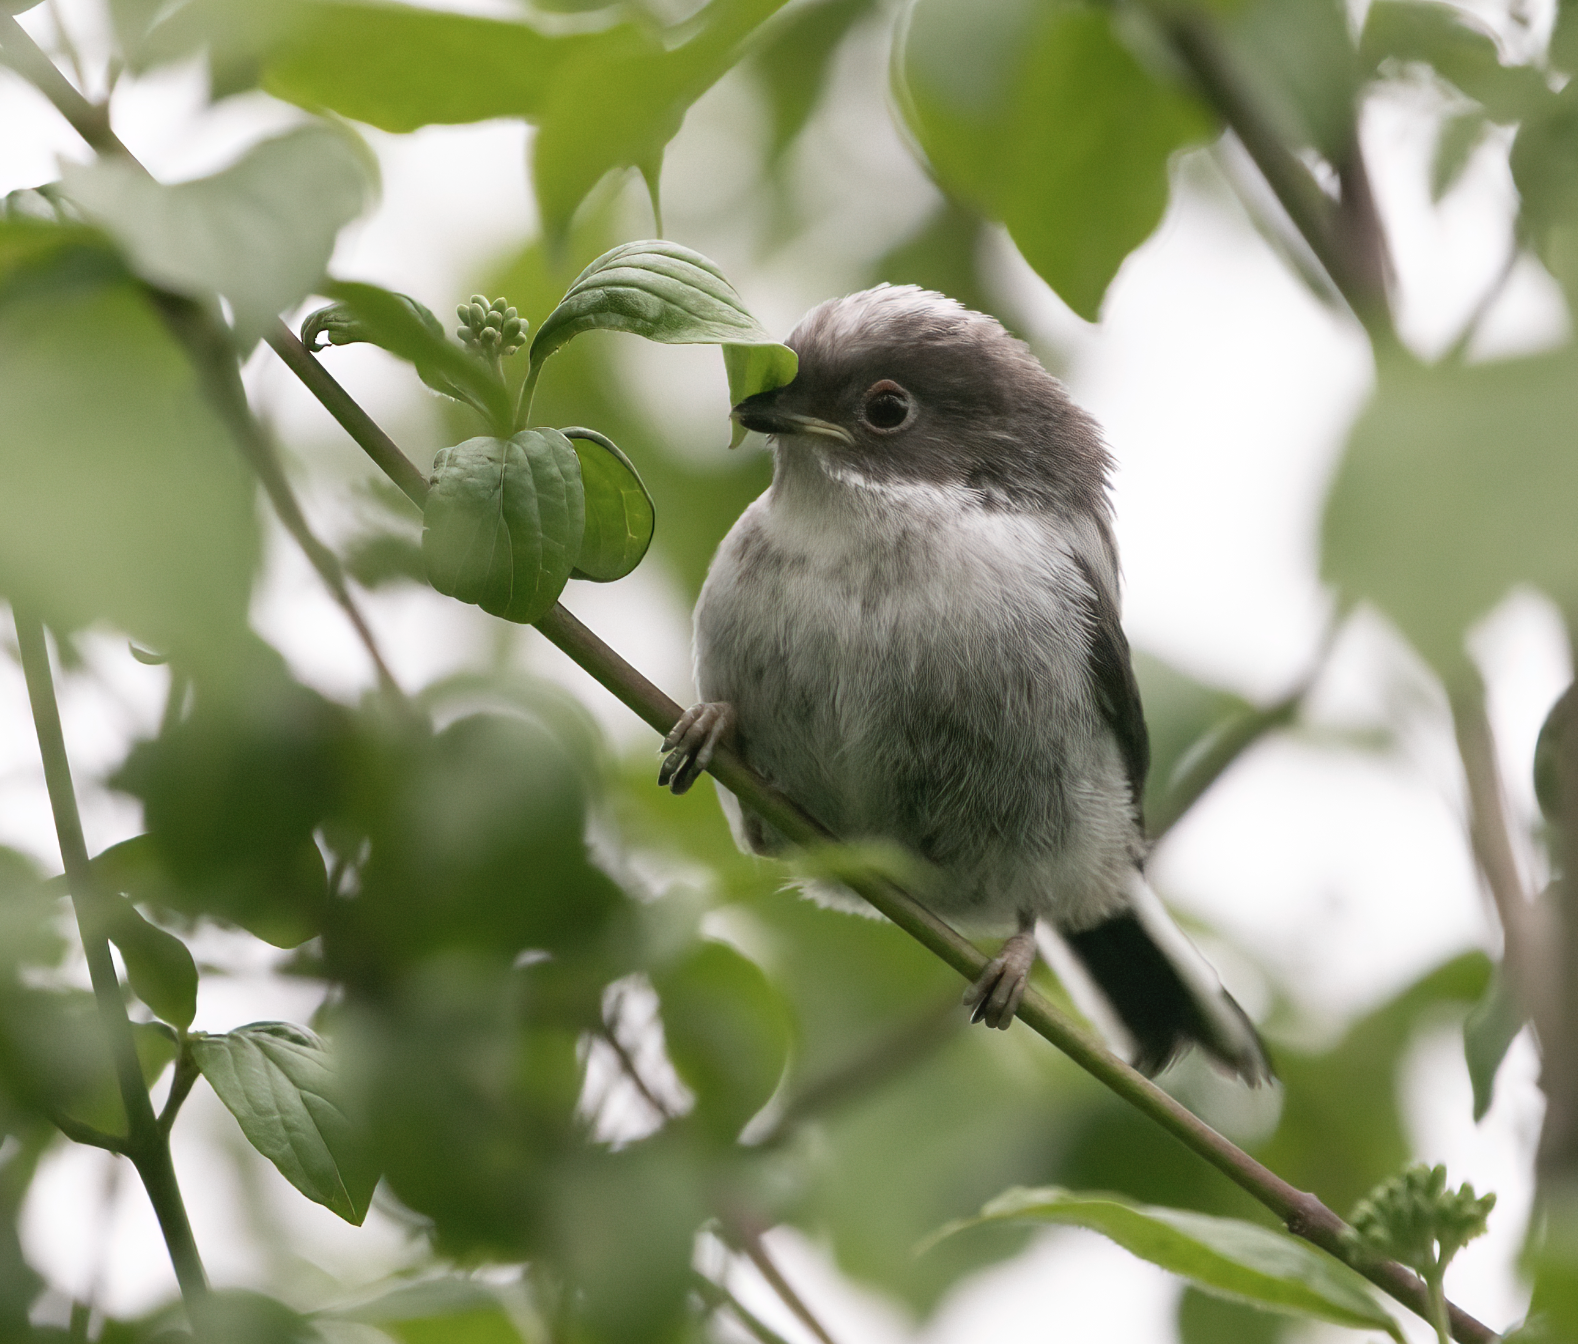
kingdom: Animalia
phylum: Chordata
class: Aves
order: Passeriformes
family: Aegithalidae
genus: Aegithalos
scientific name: Aegithalos caudatus
